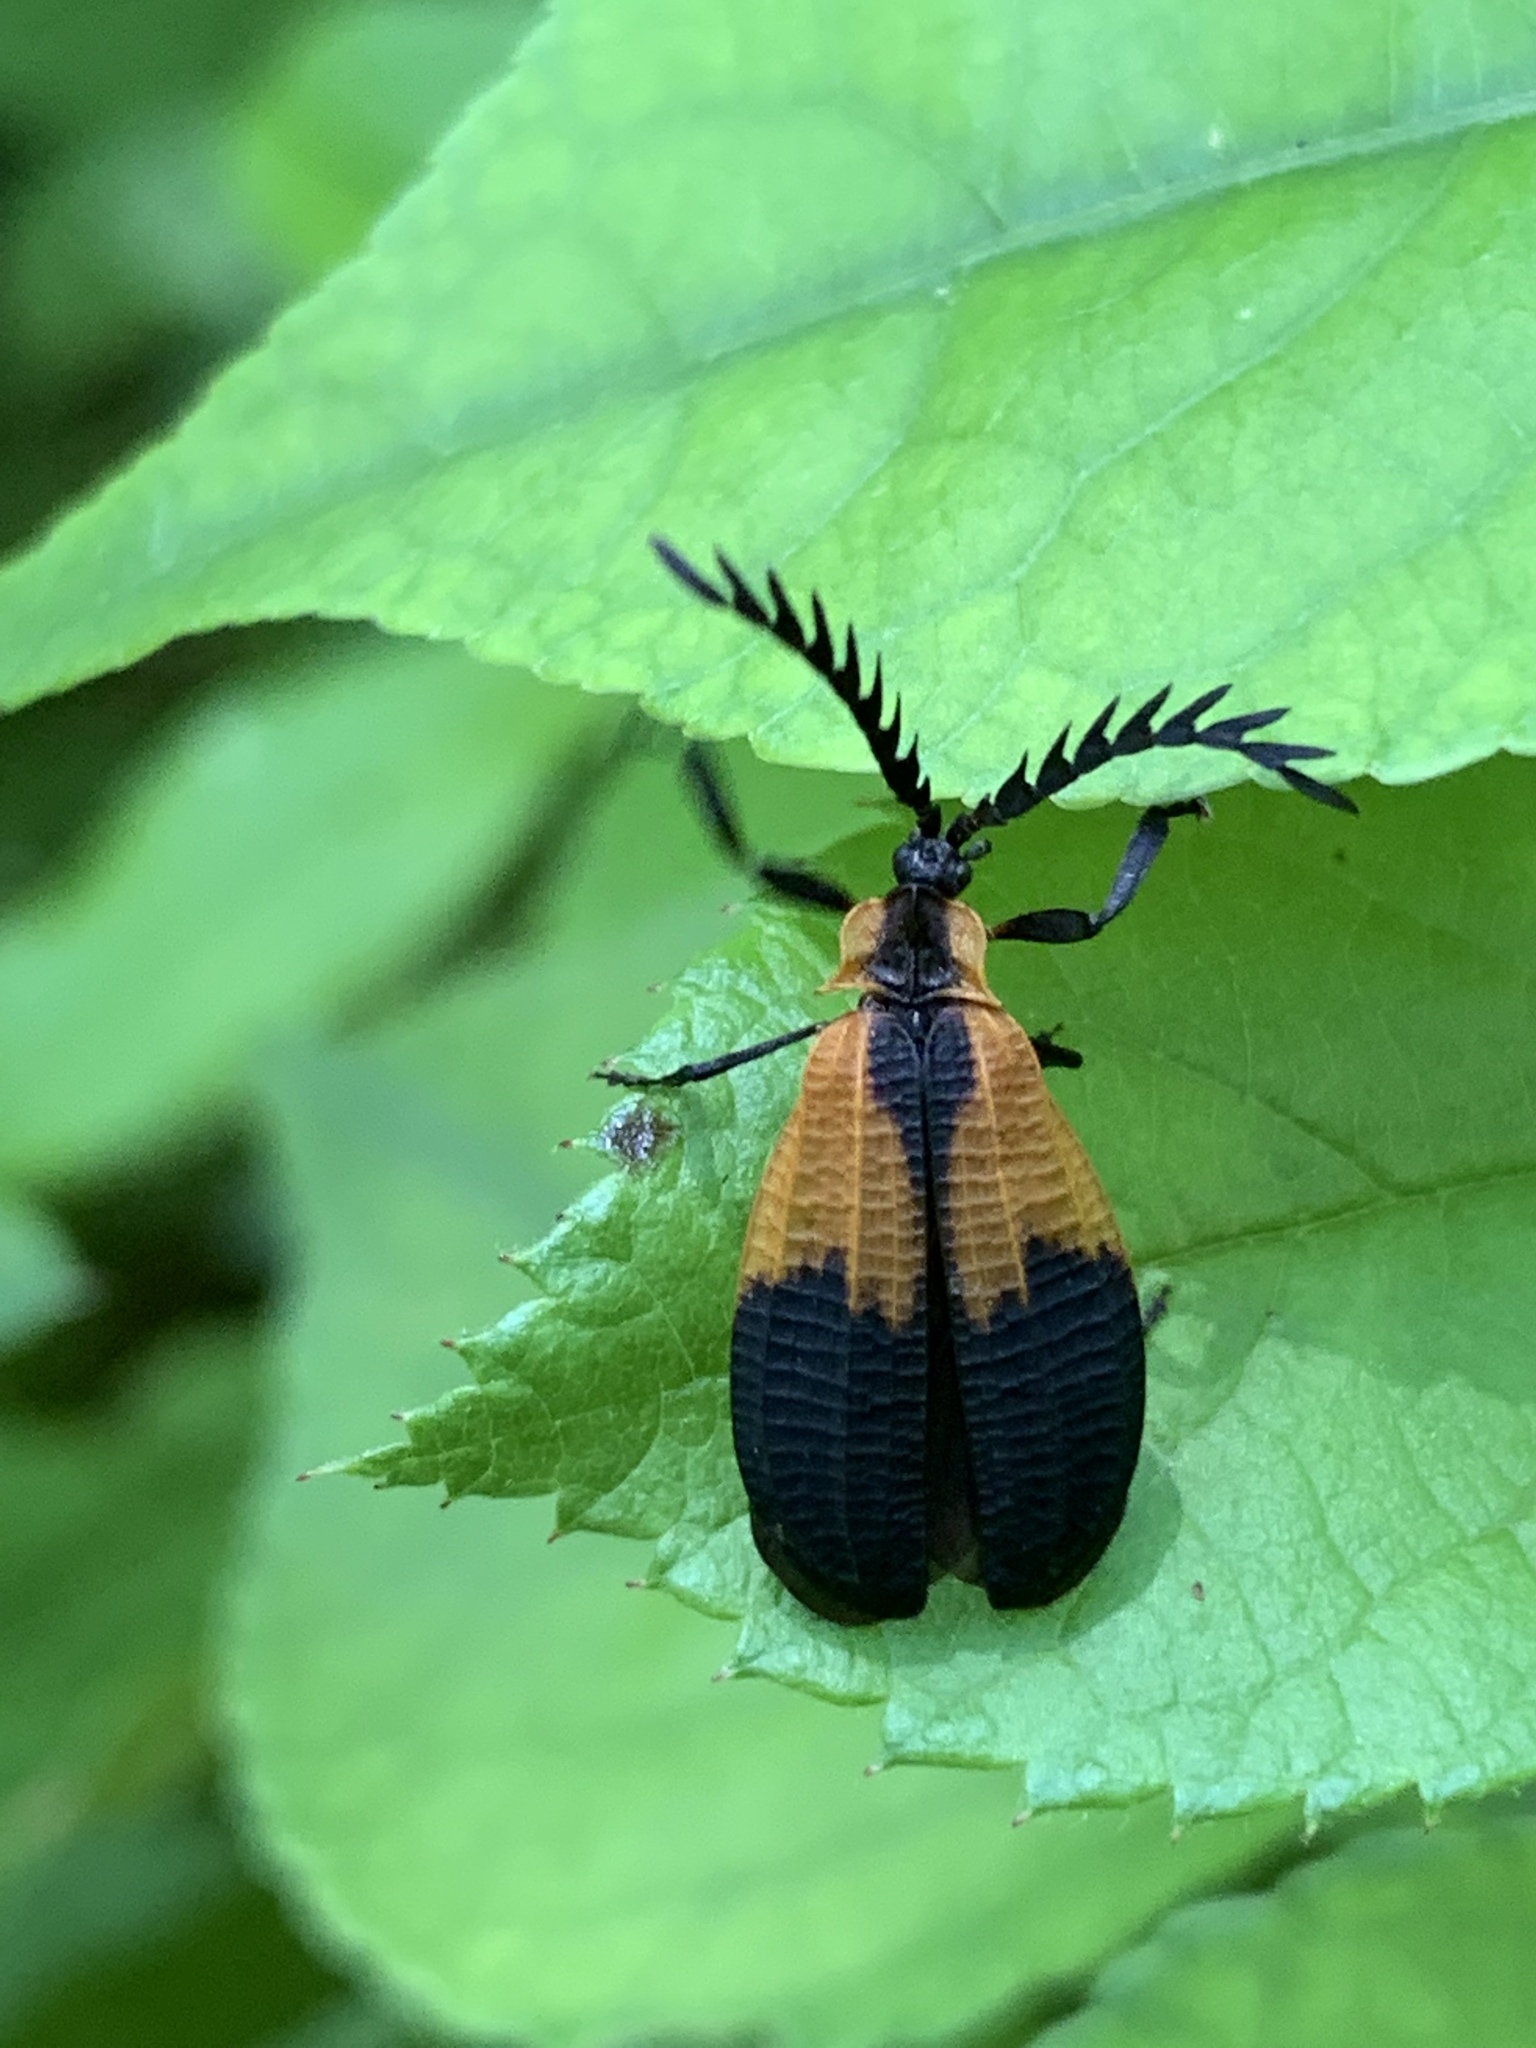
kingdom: Animalia
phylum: Arthropoda
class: Insecta
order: Coleoptera
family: Lycidae
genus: Caenia
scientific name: Caenia dimidiata
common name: Terminal net-winged beetle
